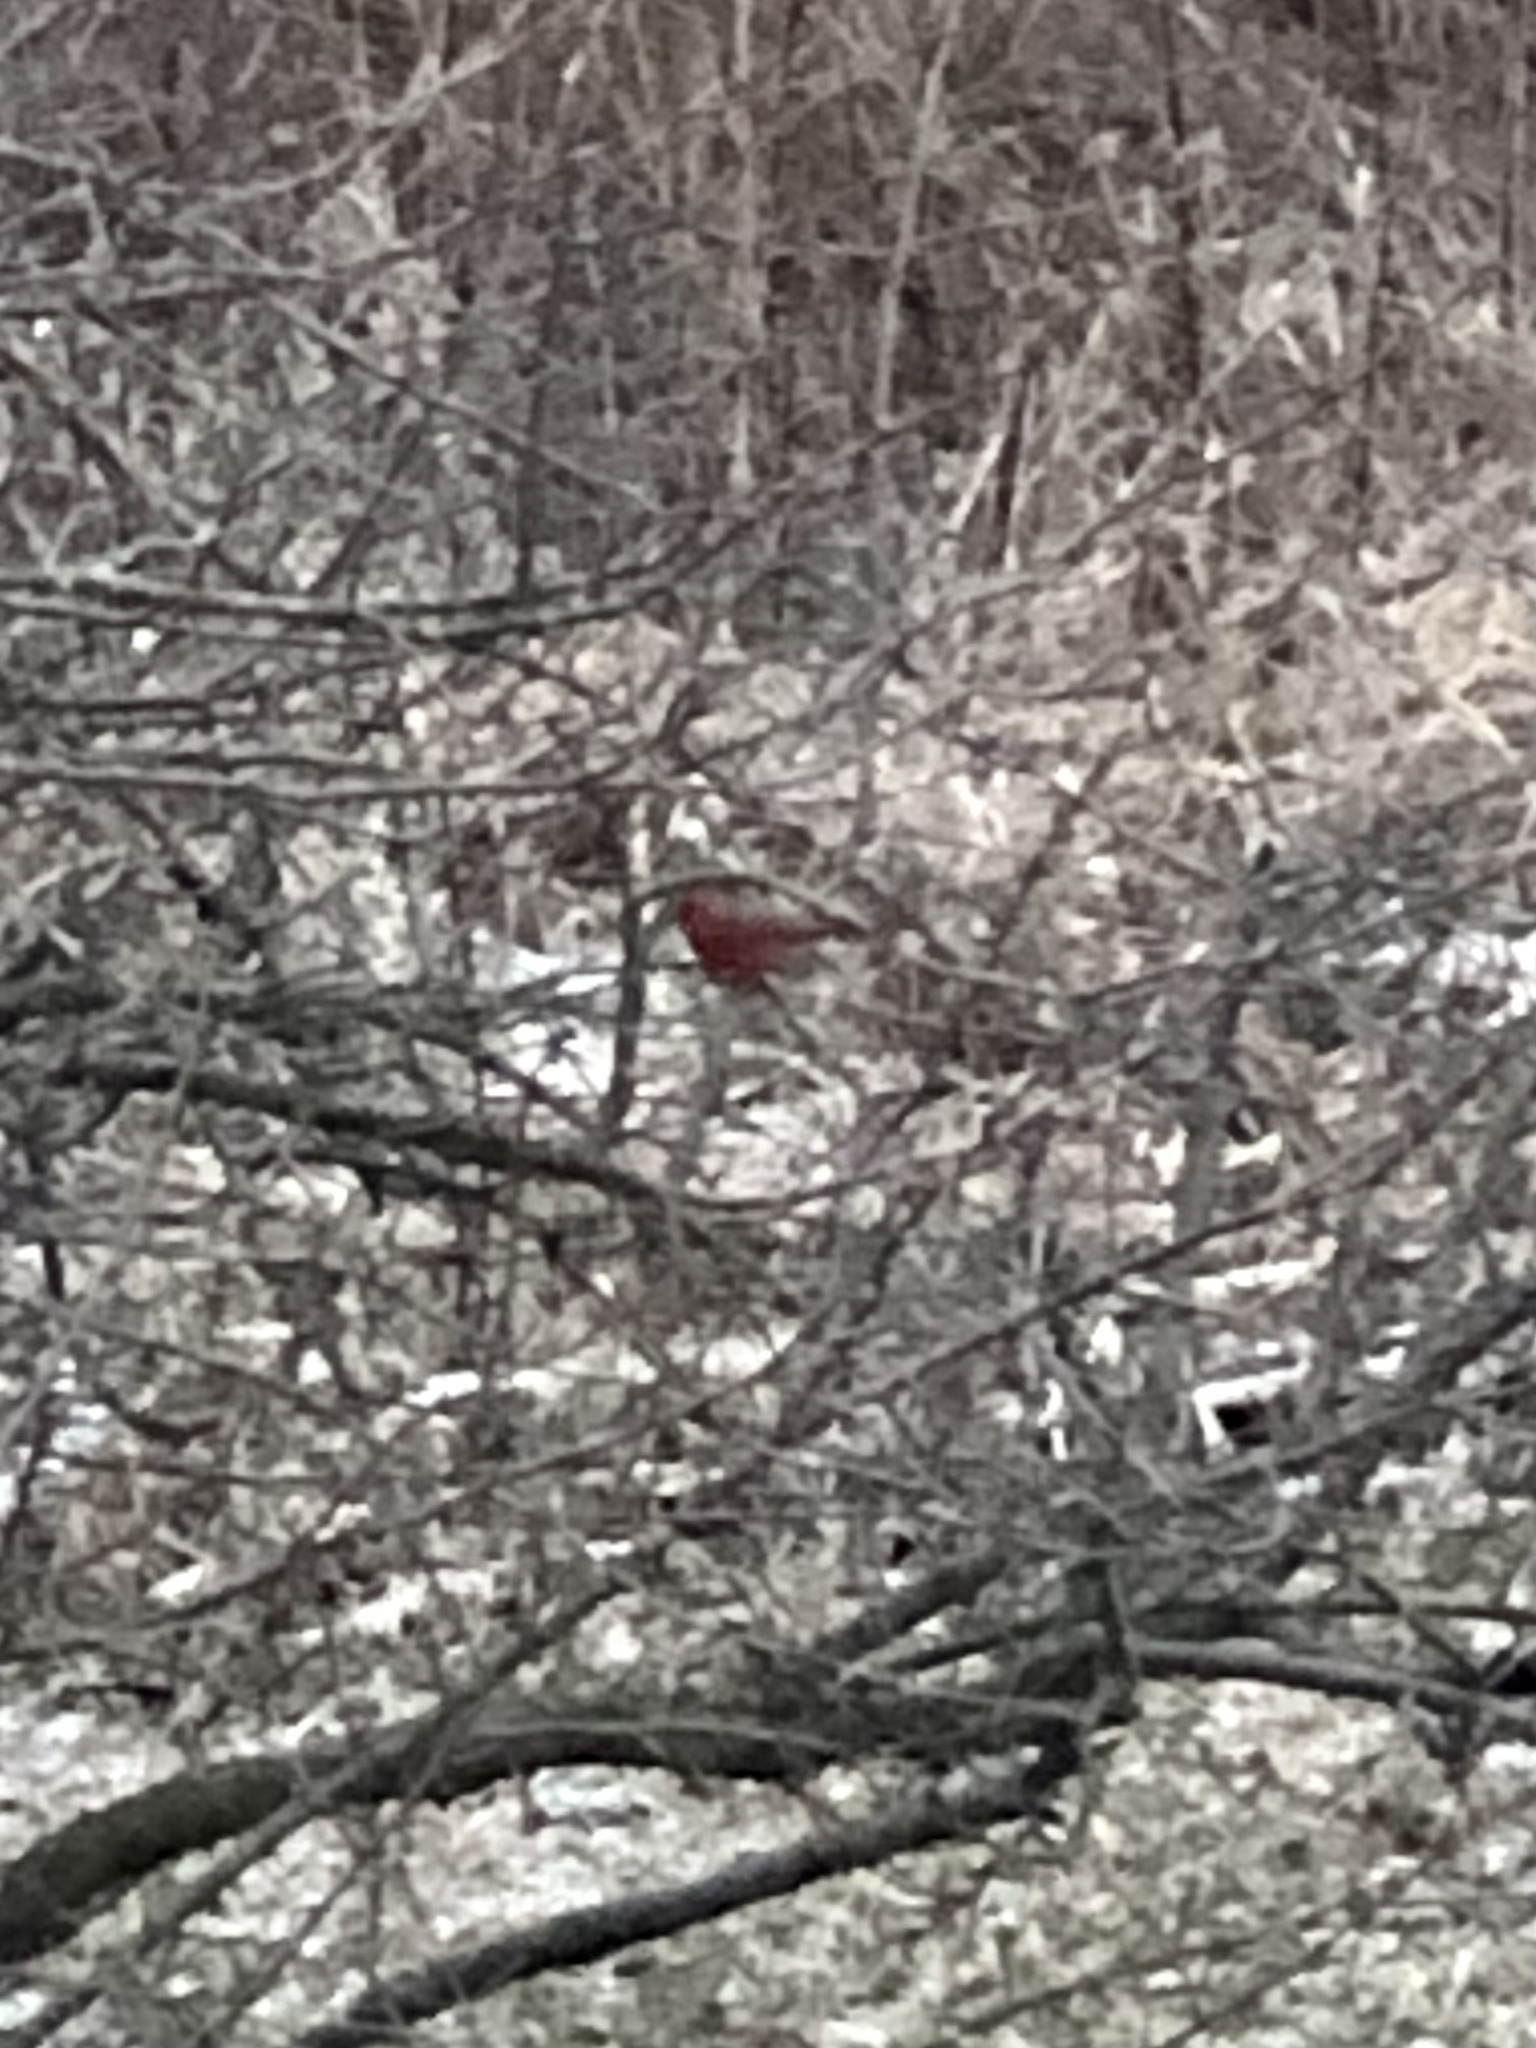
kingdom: Animalia
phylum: Chordata
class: Aves
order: Passeriformes
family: Cardinalidae
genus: Cardinalis
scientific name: Cardinalis cardinalis
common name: Northern cardinal
